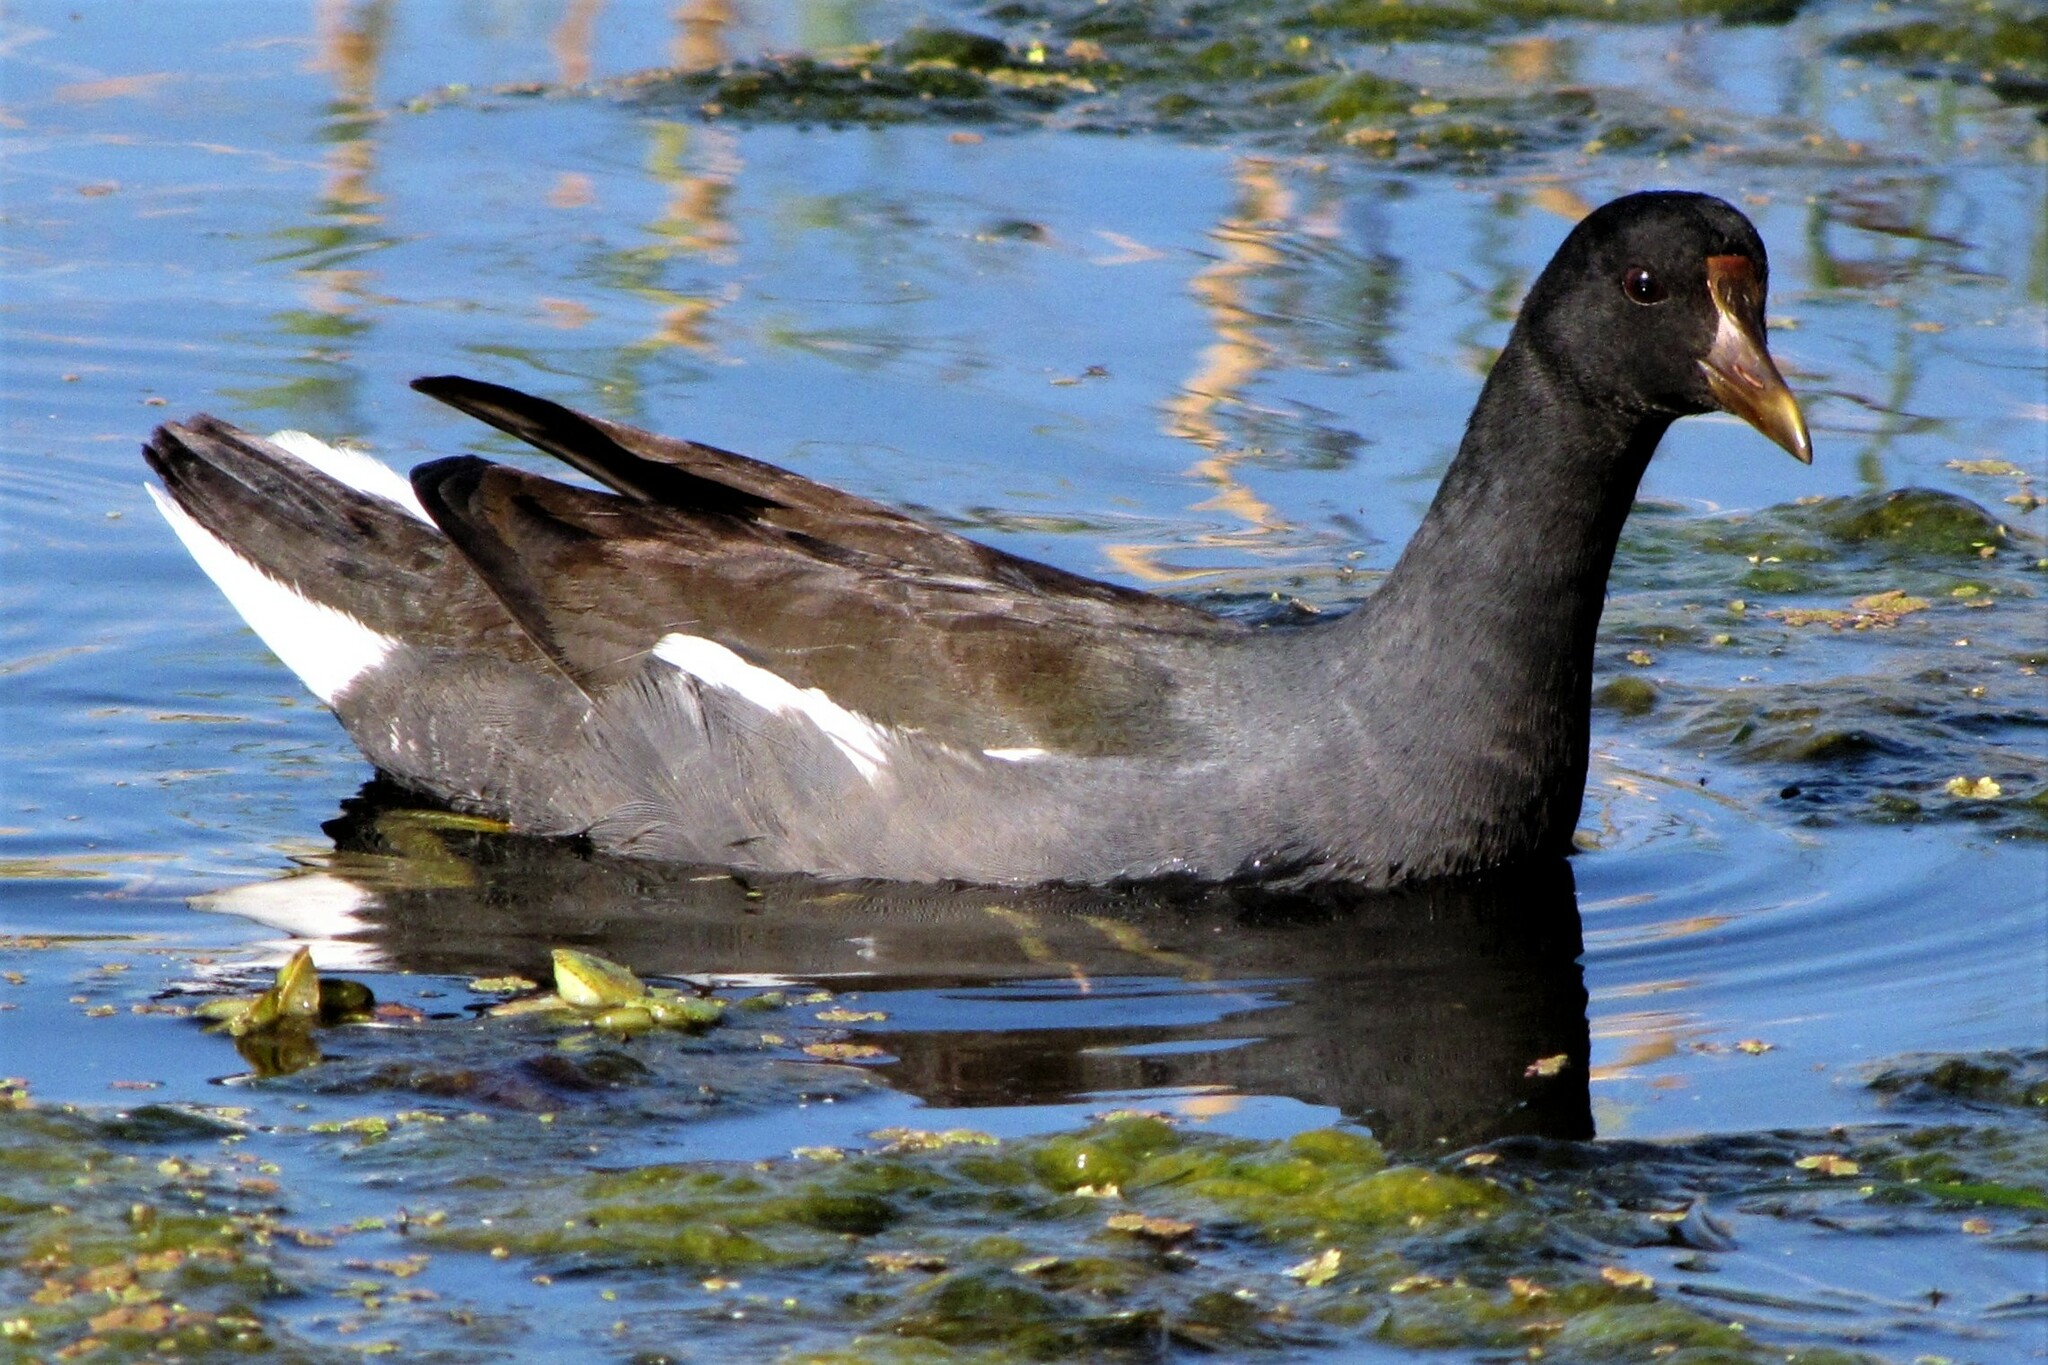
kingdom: Animalia
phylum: Chordata
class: Aves
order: Gruiformes
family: Rallidae
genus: Gallinula
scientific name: Gallinula chloropus
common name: Common moorhen
